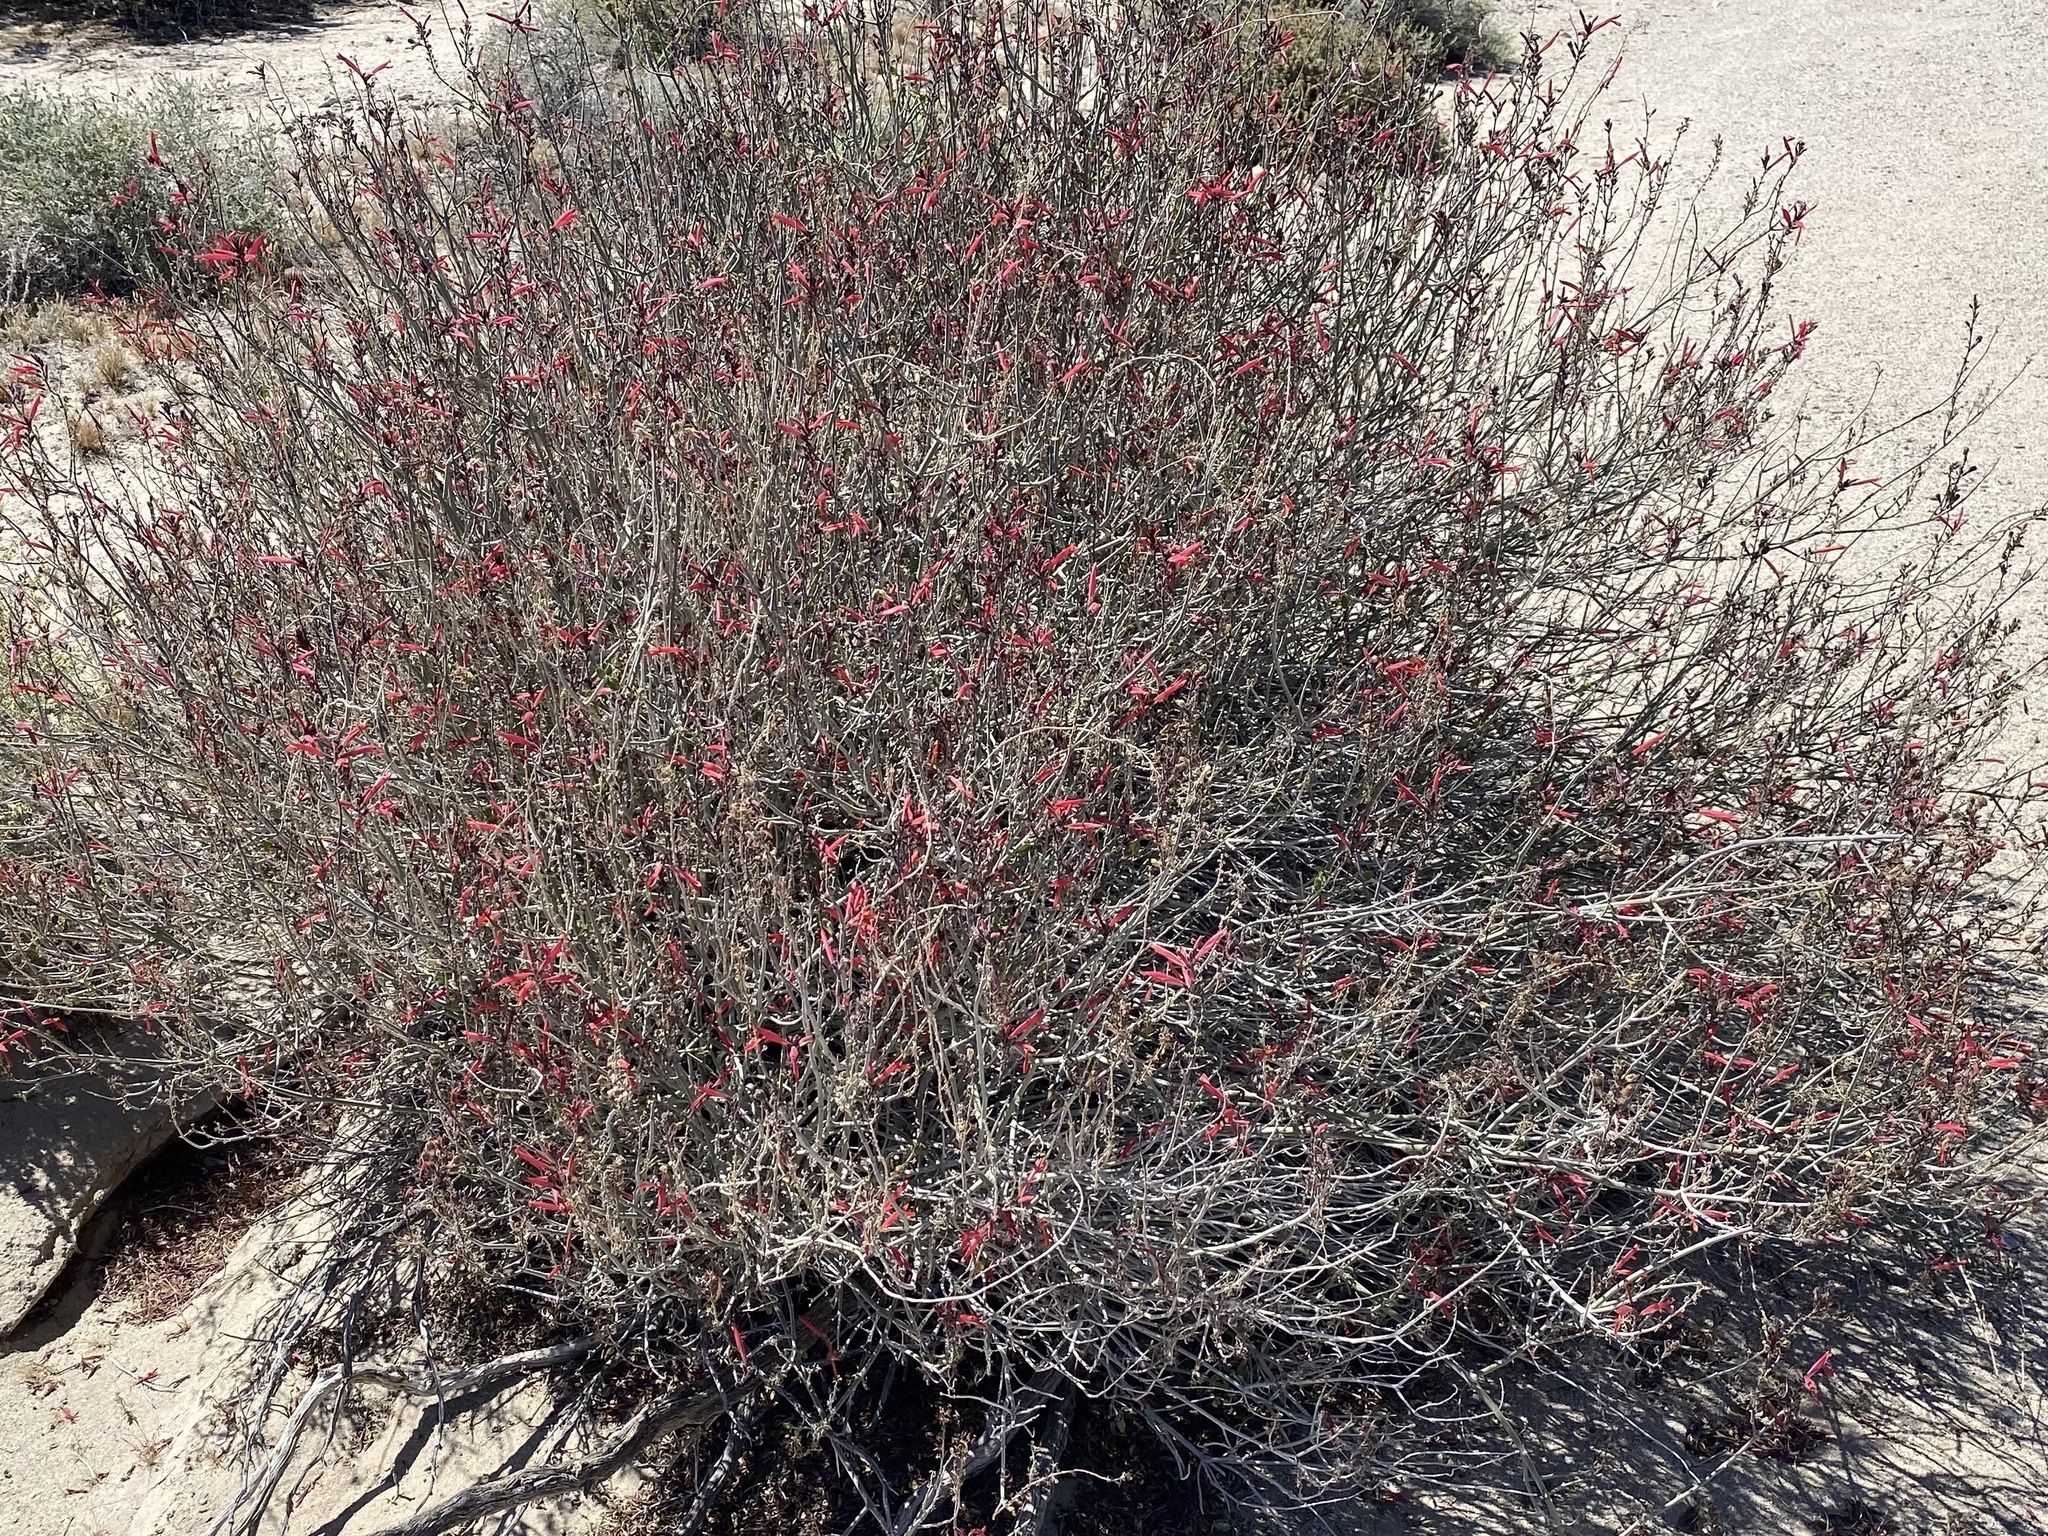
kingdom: Plantae
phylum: Tracheophyta
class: Magnoliopsida
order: Lamiales
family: Acanthaceae
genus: Justicia
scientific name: Justicia californica
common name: Chuparosa-honeysuckle
